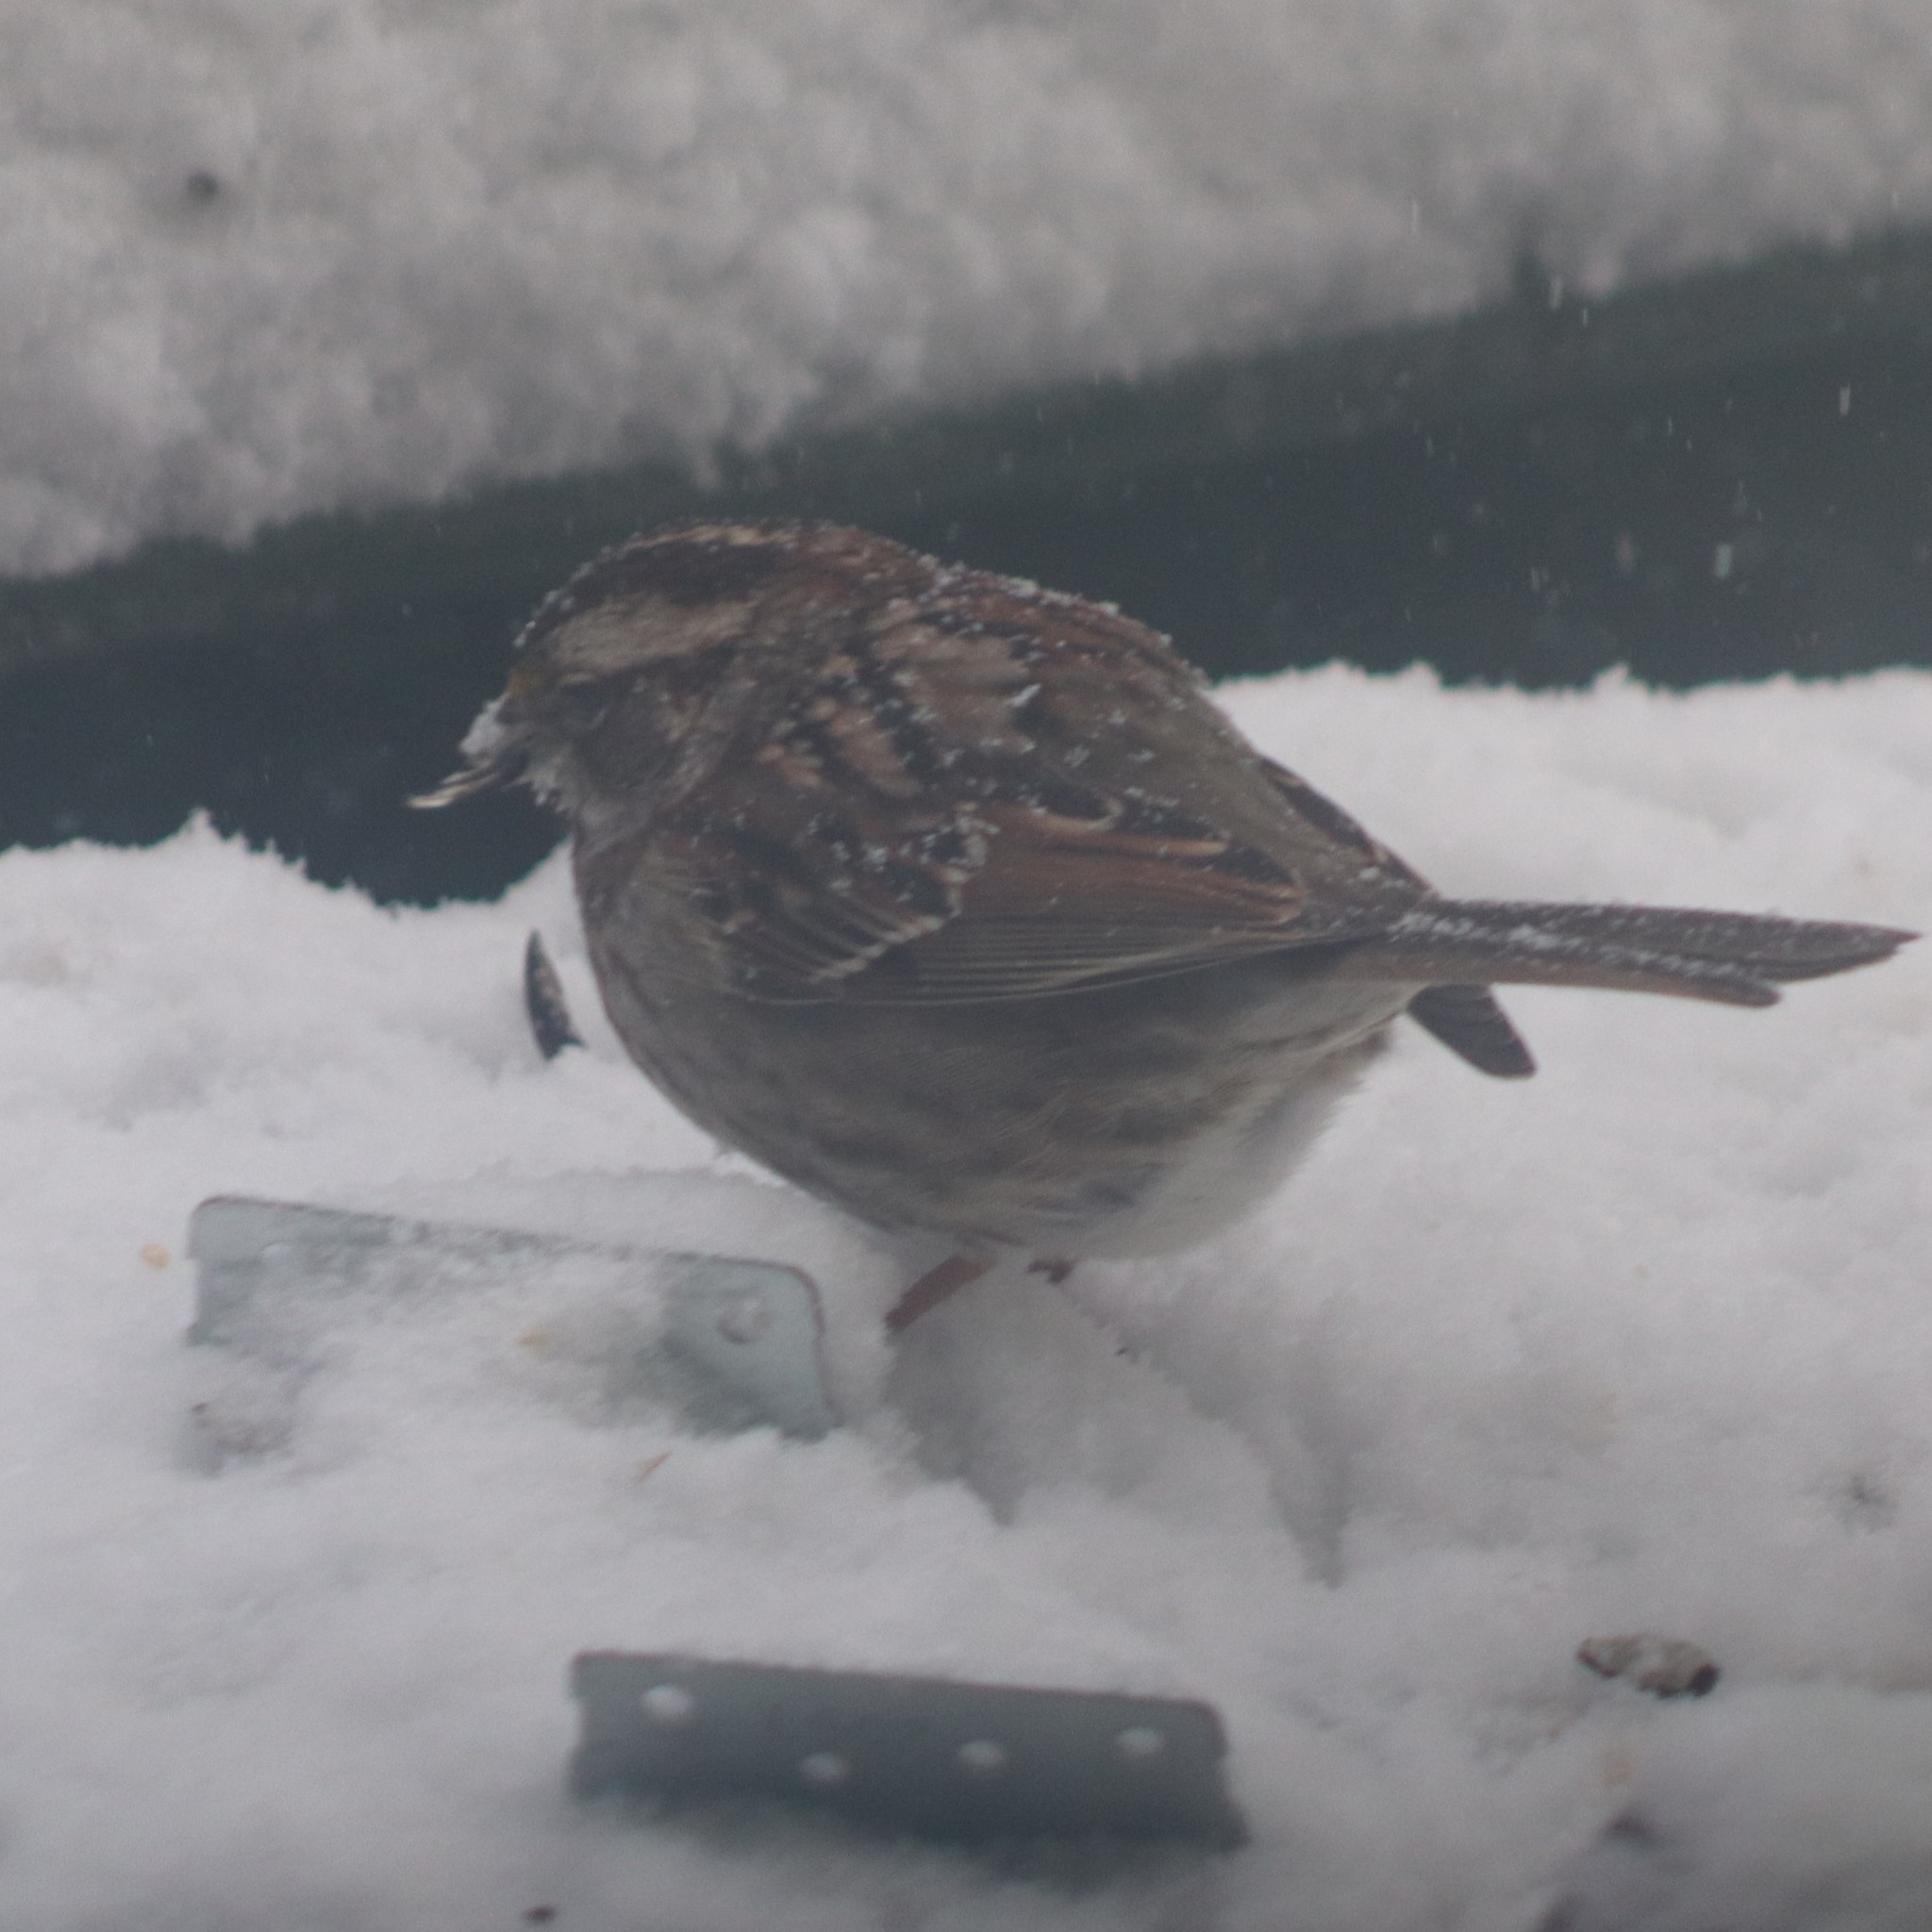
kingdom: Animalia
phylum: Chordata
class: Aves
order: Passeriformes
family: Passerellidae
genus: Zonotrichia
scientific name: Zonotrichia albicollis
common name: White-throated sparrow
